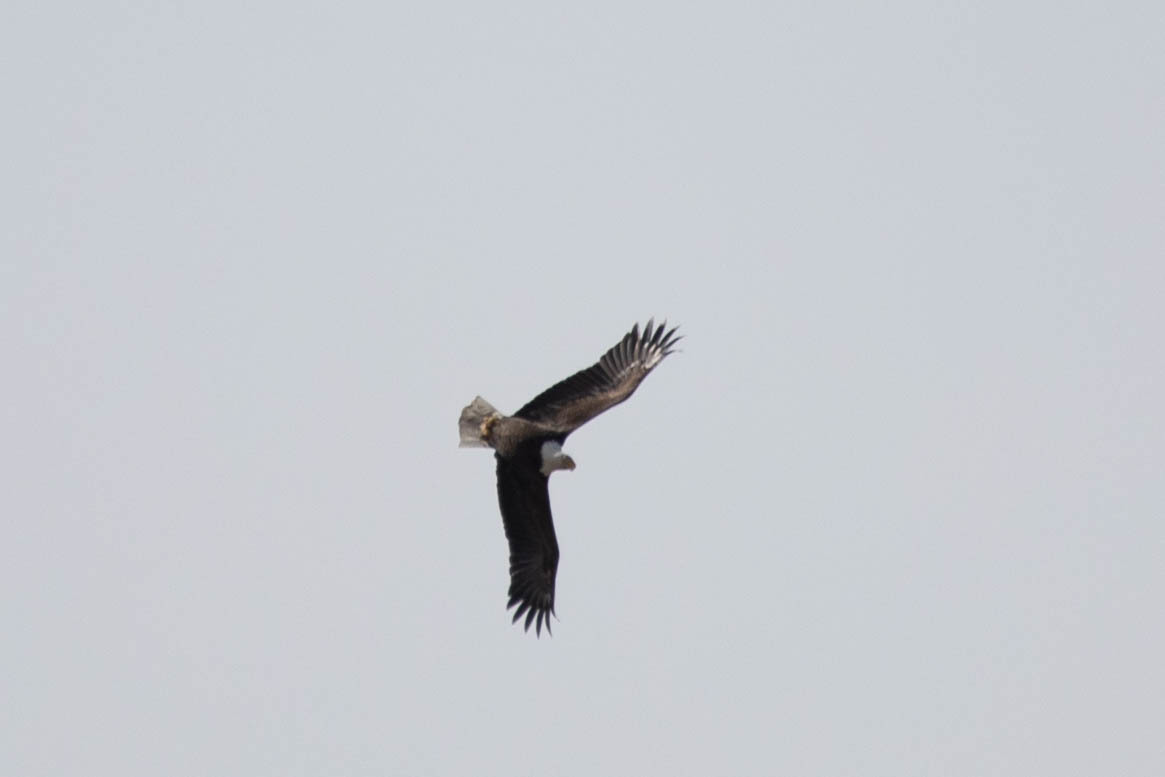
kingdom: Animalia
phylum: Chordata
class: Aves
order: Accipitriformes
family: Accipitridae
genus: Haliaeetus
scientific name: Haliaeetus leucocephalus
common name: Bald eagle
